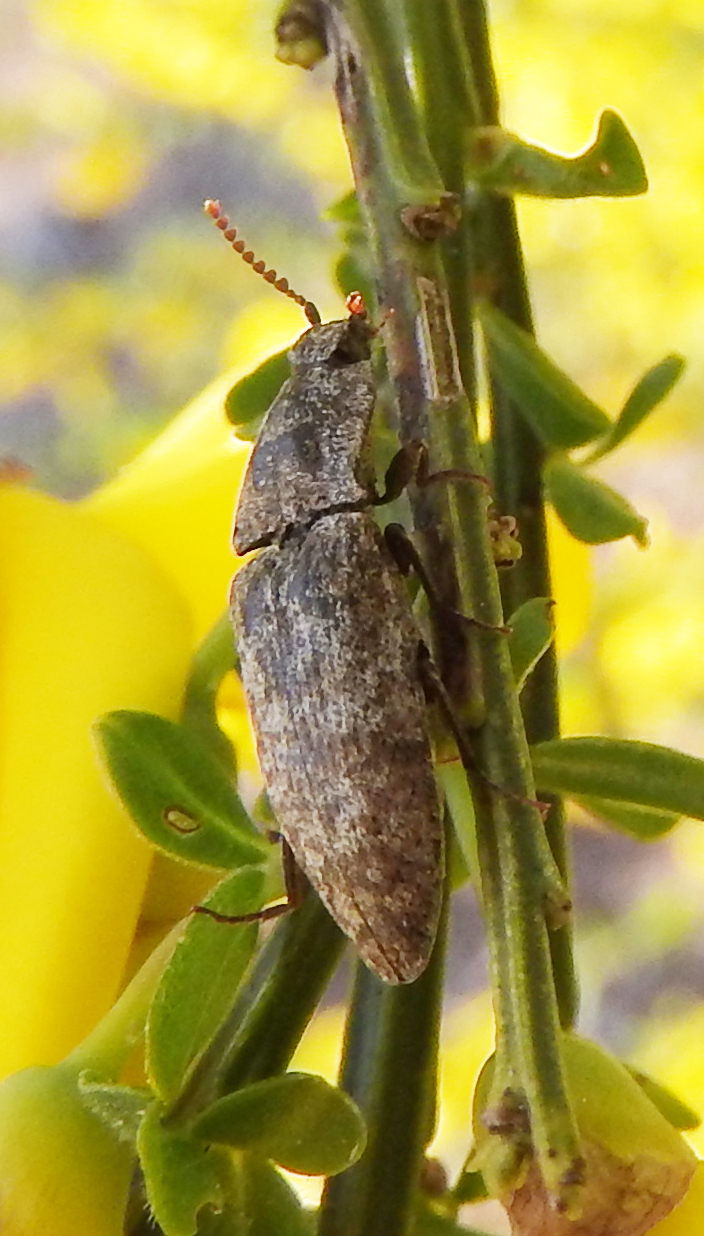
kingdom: Animalia
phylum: Arthropoda
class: Insecta
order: Coleoptera
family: Elateridae
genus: Agrypnus
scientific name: Agrypnus murinus
